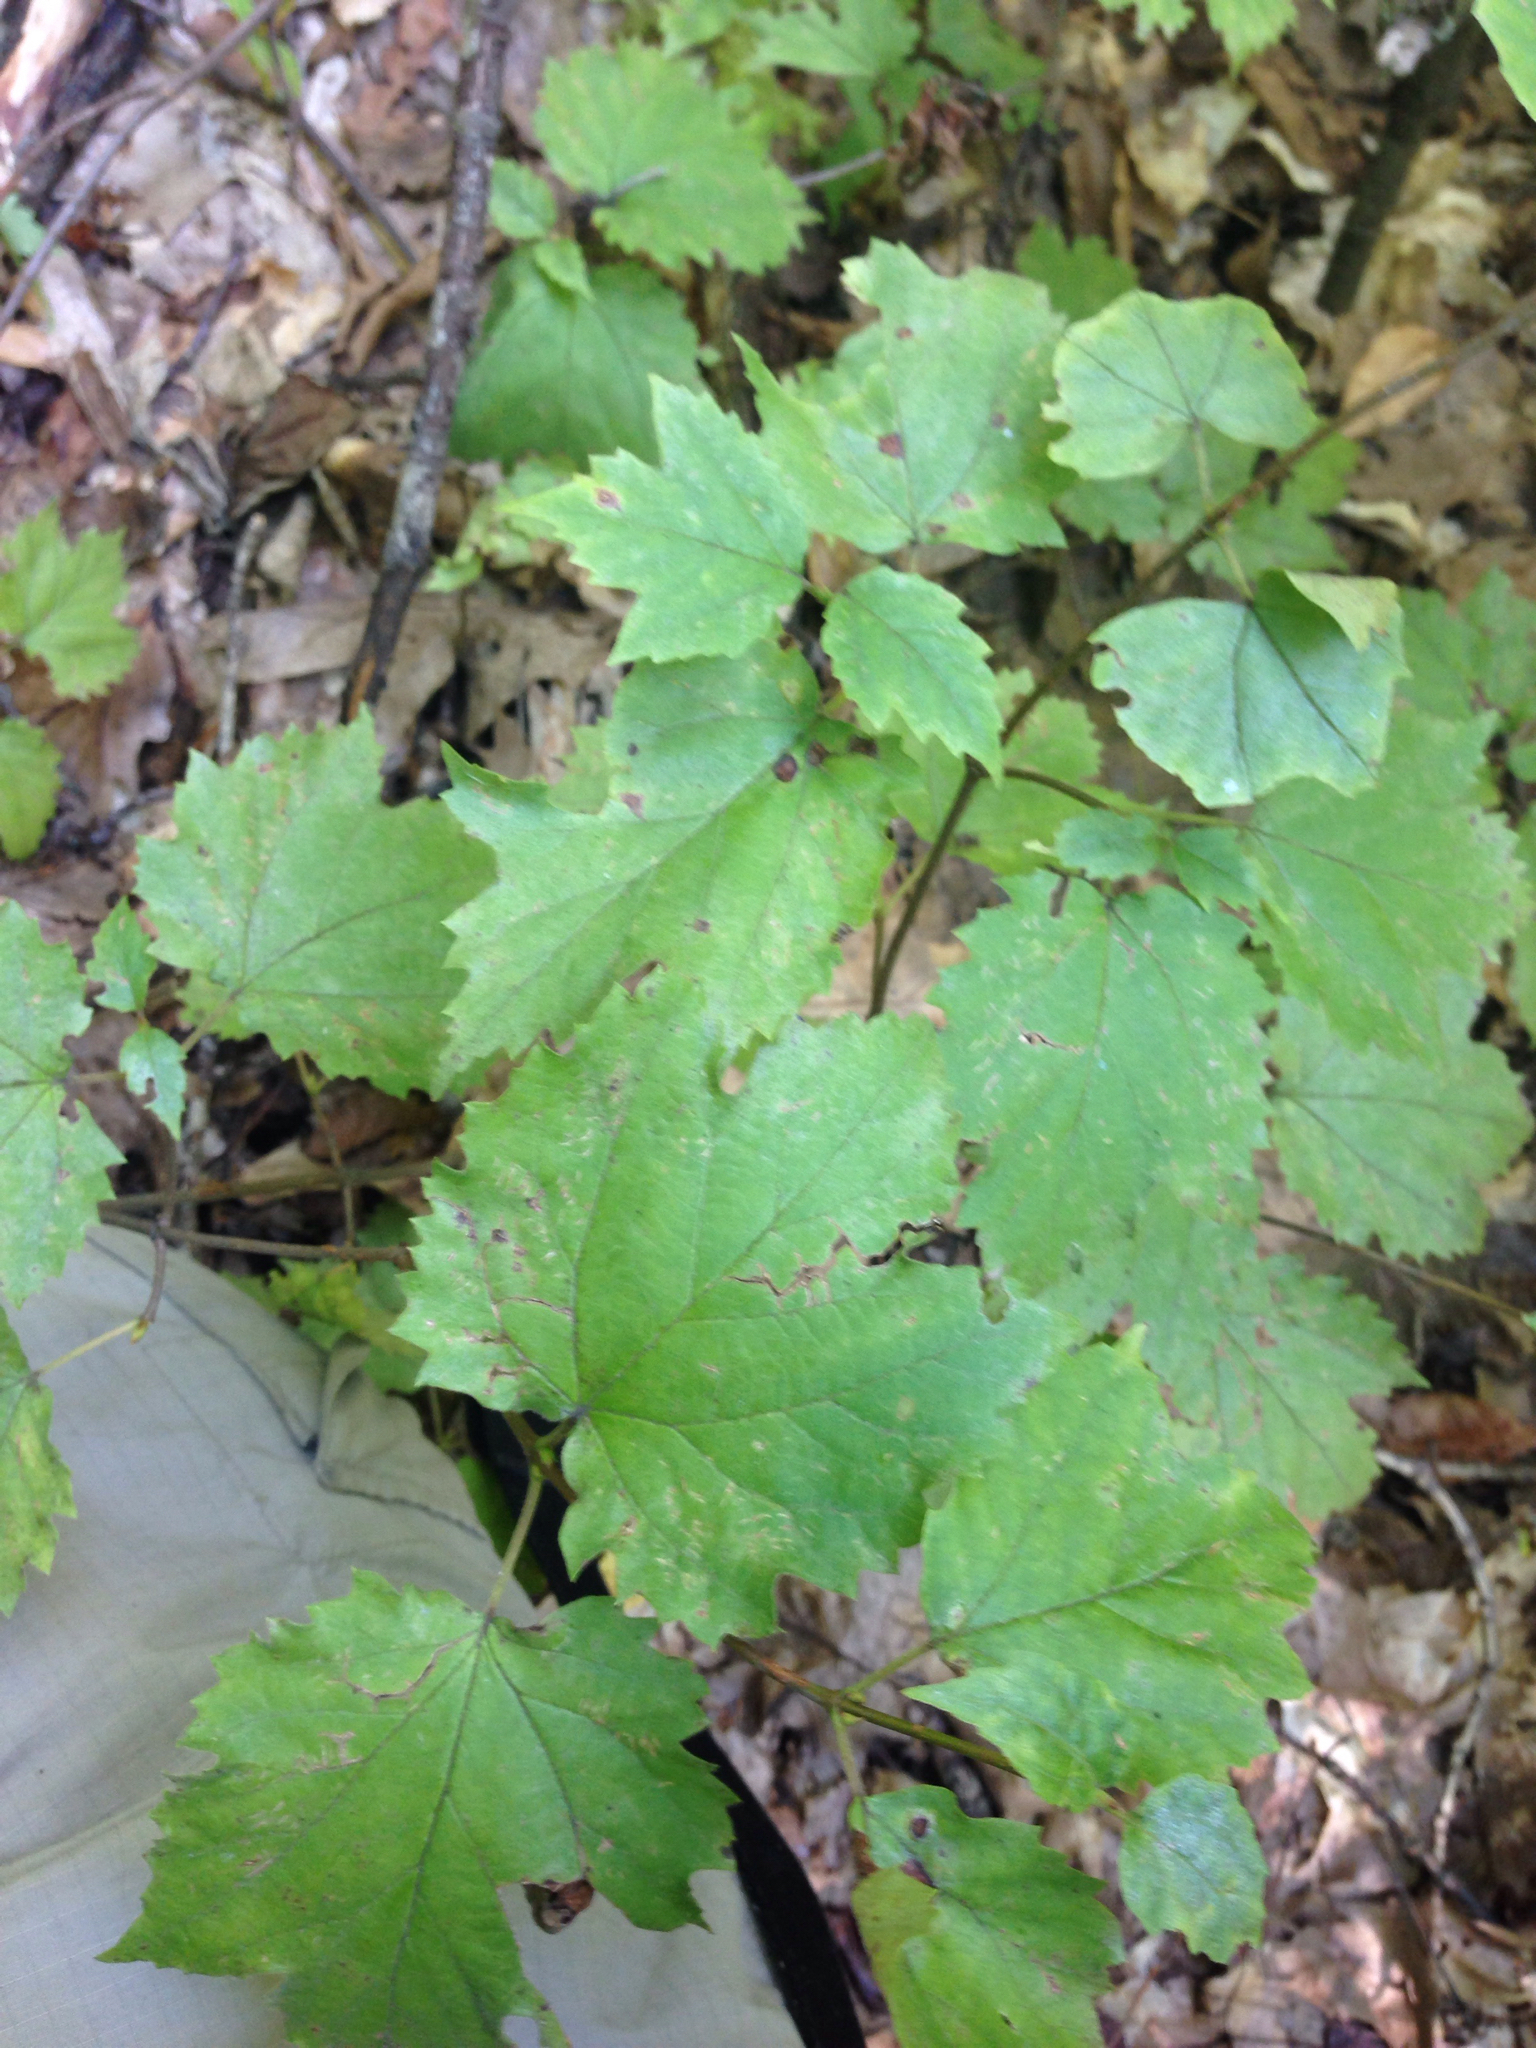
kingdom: Plantae
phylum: Tracheophyta
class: Magnoliopsida
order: Dipsacales
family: Viburnaceae
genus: Viburnum
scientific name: Viburnum acerifolium
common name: Dockmackie
